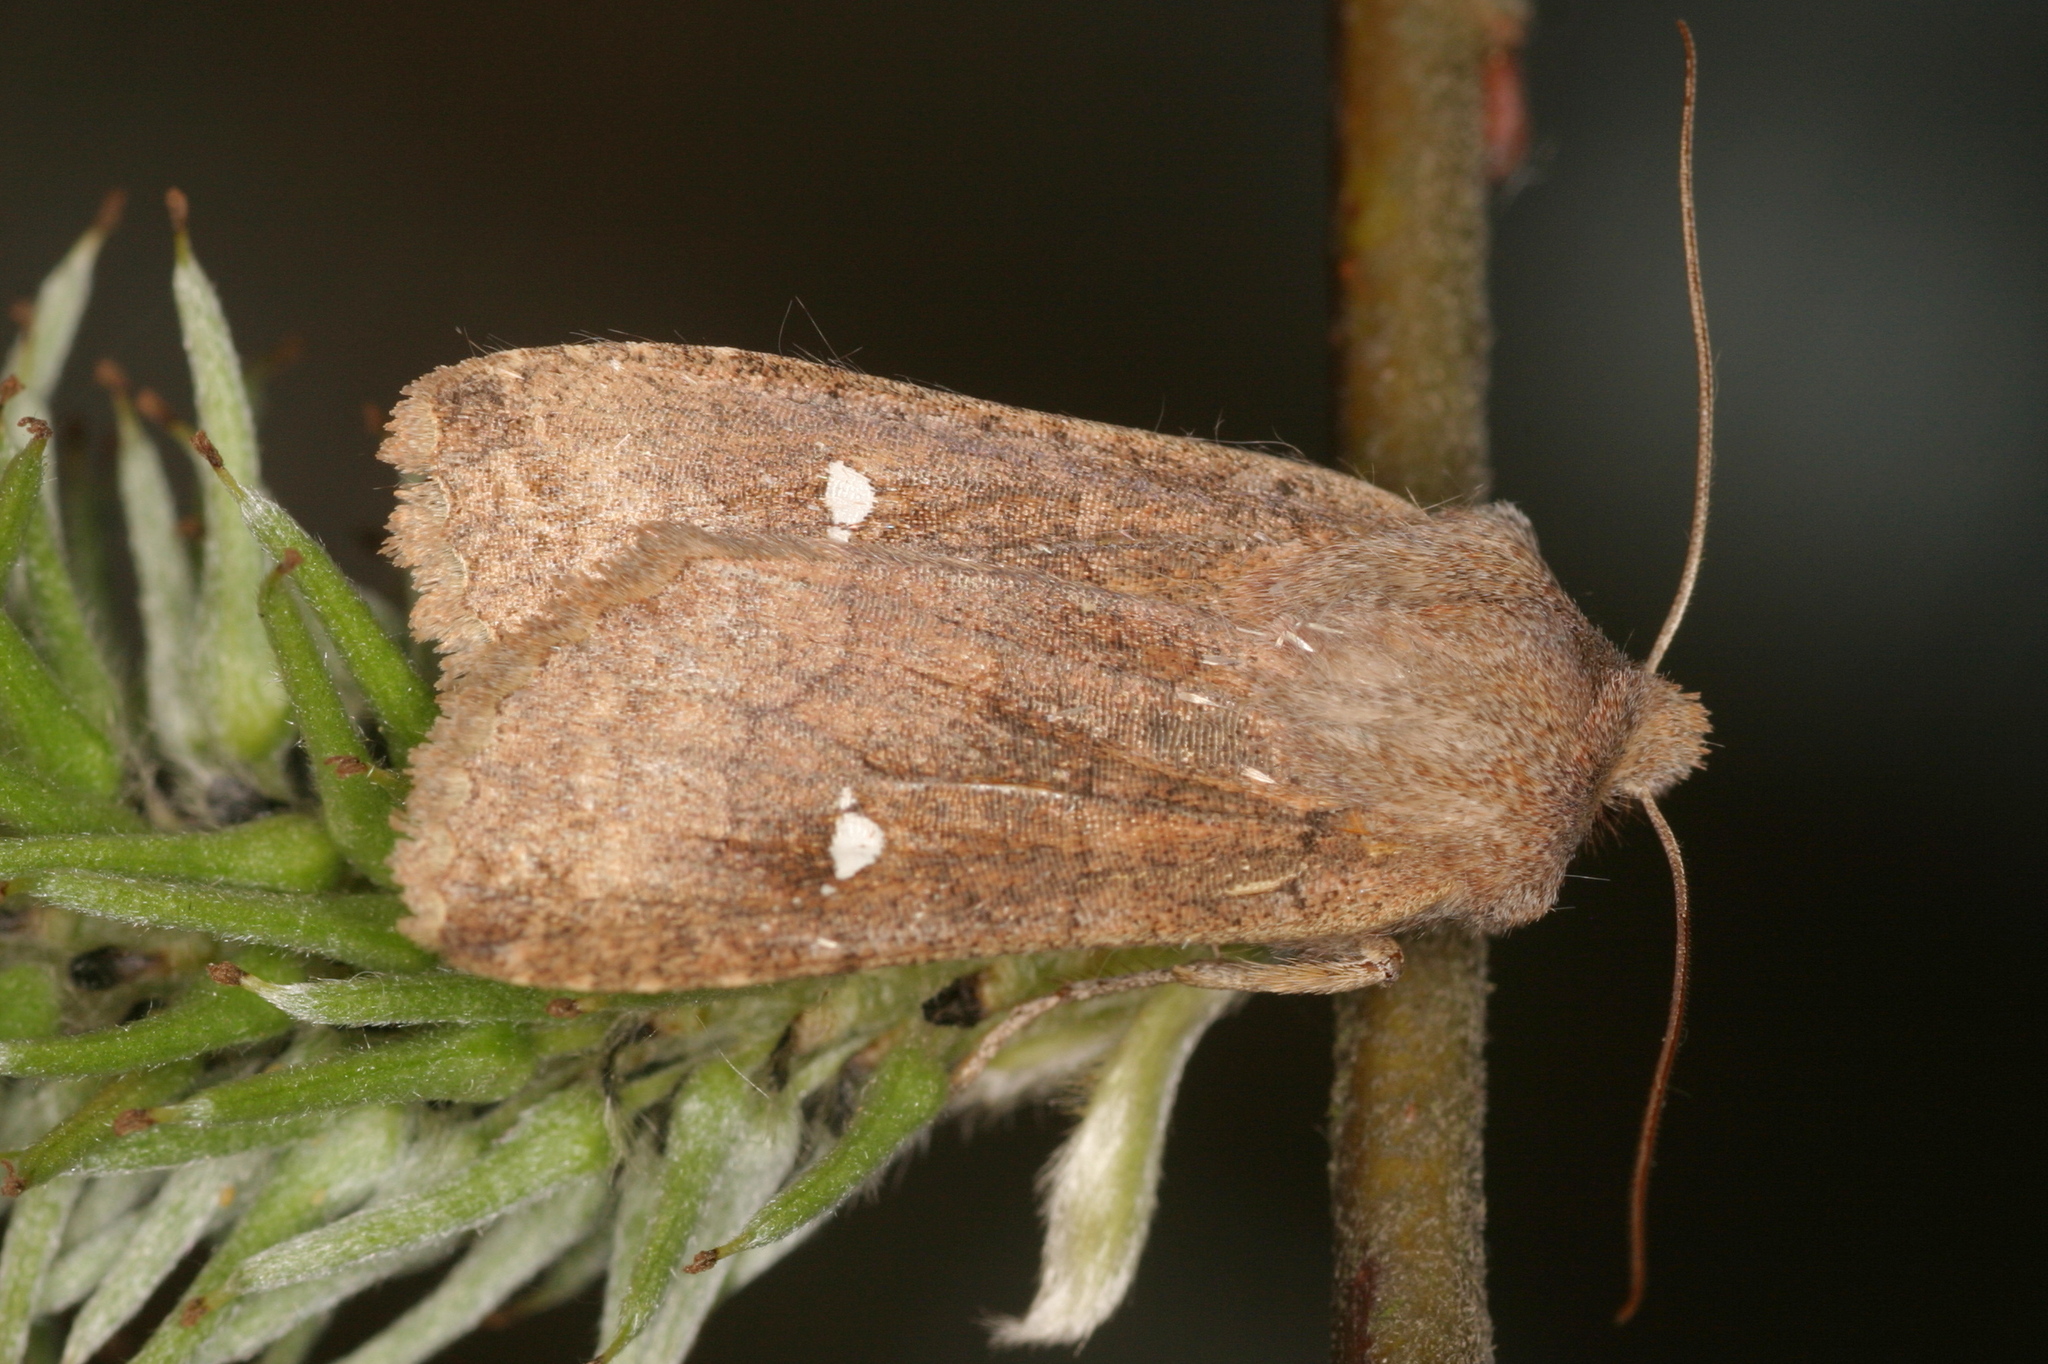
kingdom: Animalia
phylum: Arthropoda
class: Insecta
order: Lepidoptera
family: Noctuidae
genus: Eupsilia
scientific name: Eupsilia transversa
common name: Satellite
